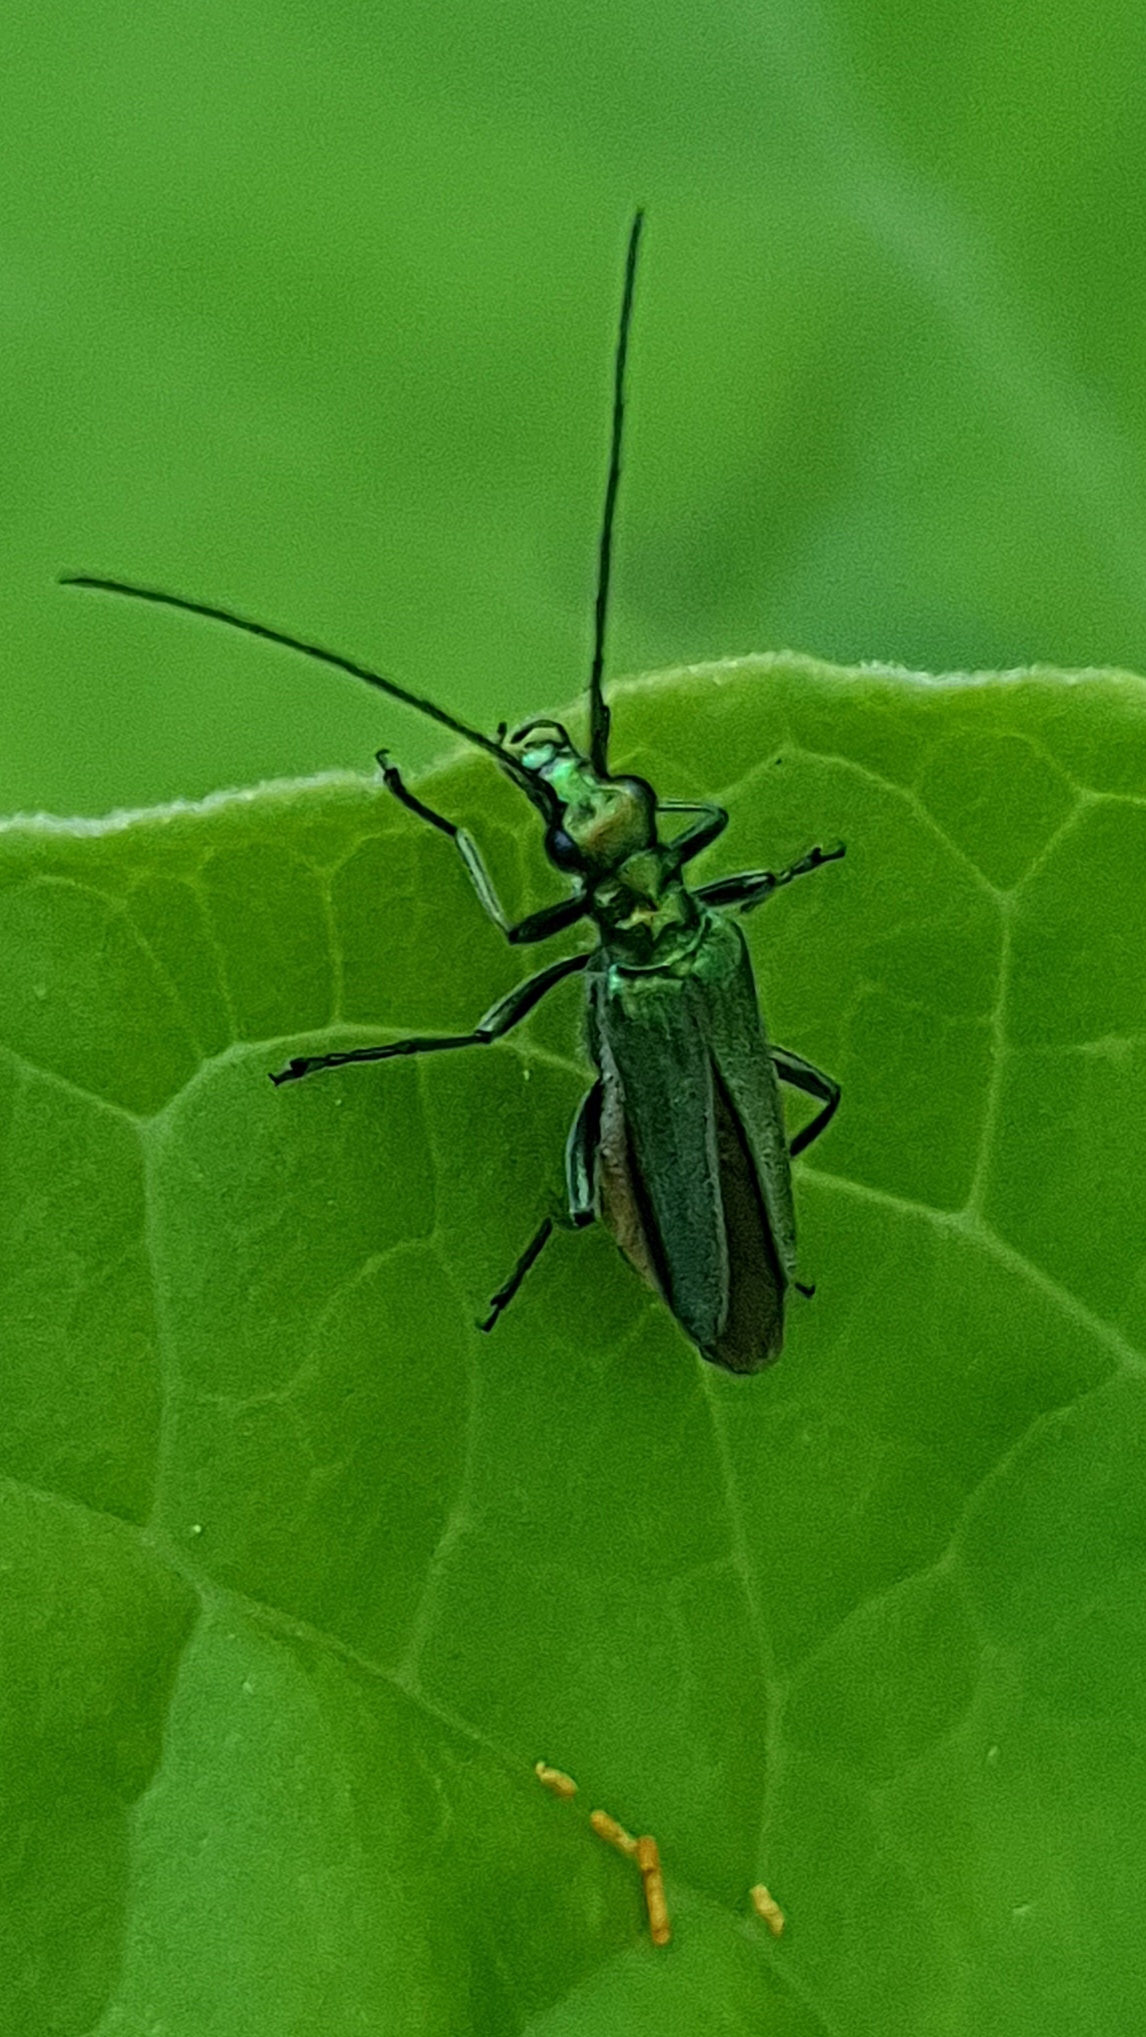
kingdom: Animalia
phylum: Arthropoda
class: Insecta
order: Coleoptera
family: Oedemeridae
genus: Oedemera
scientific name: Oedemera nobilis
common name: Swollen-thighed beetle
